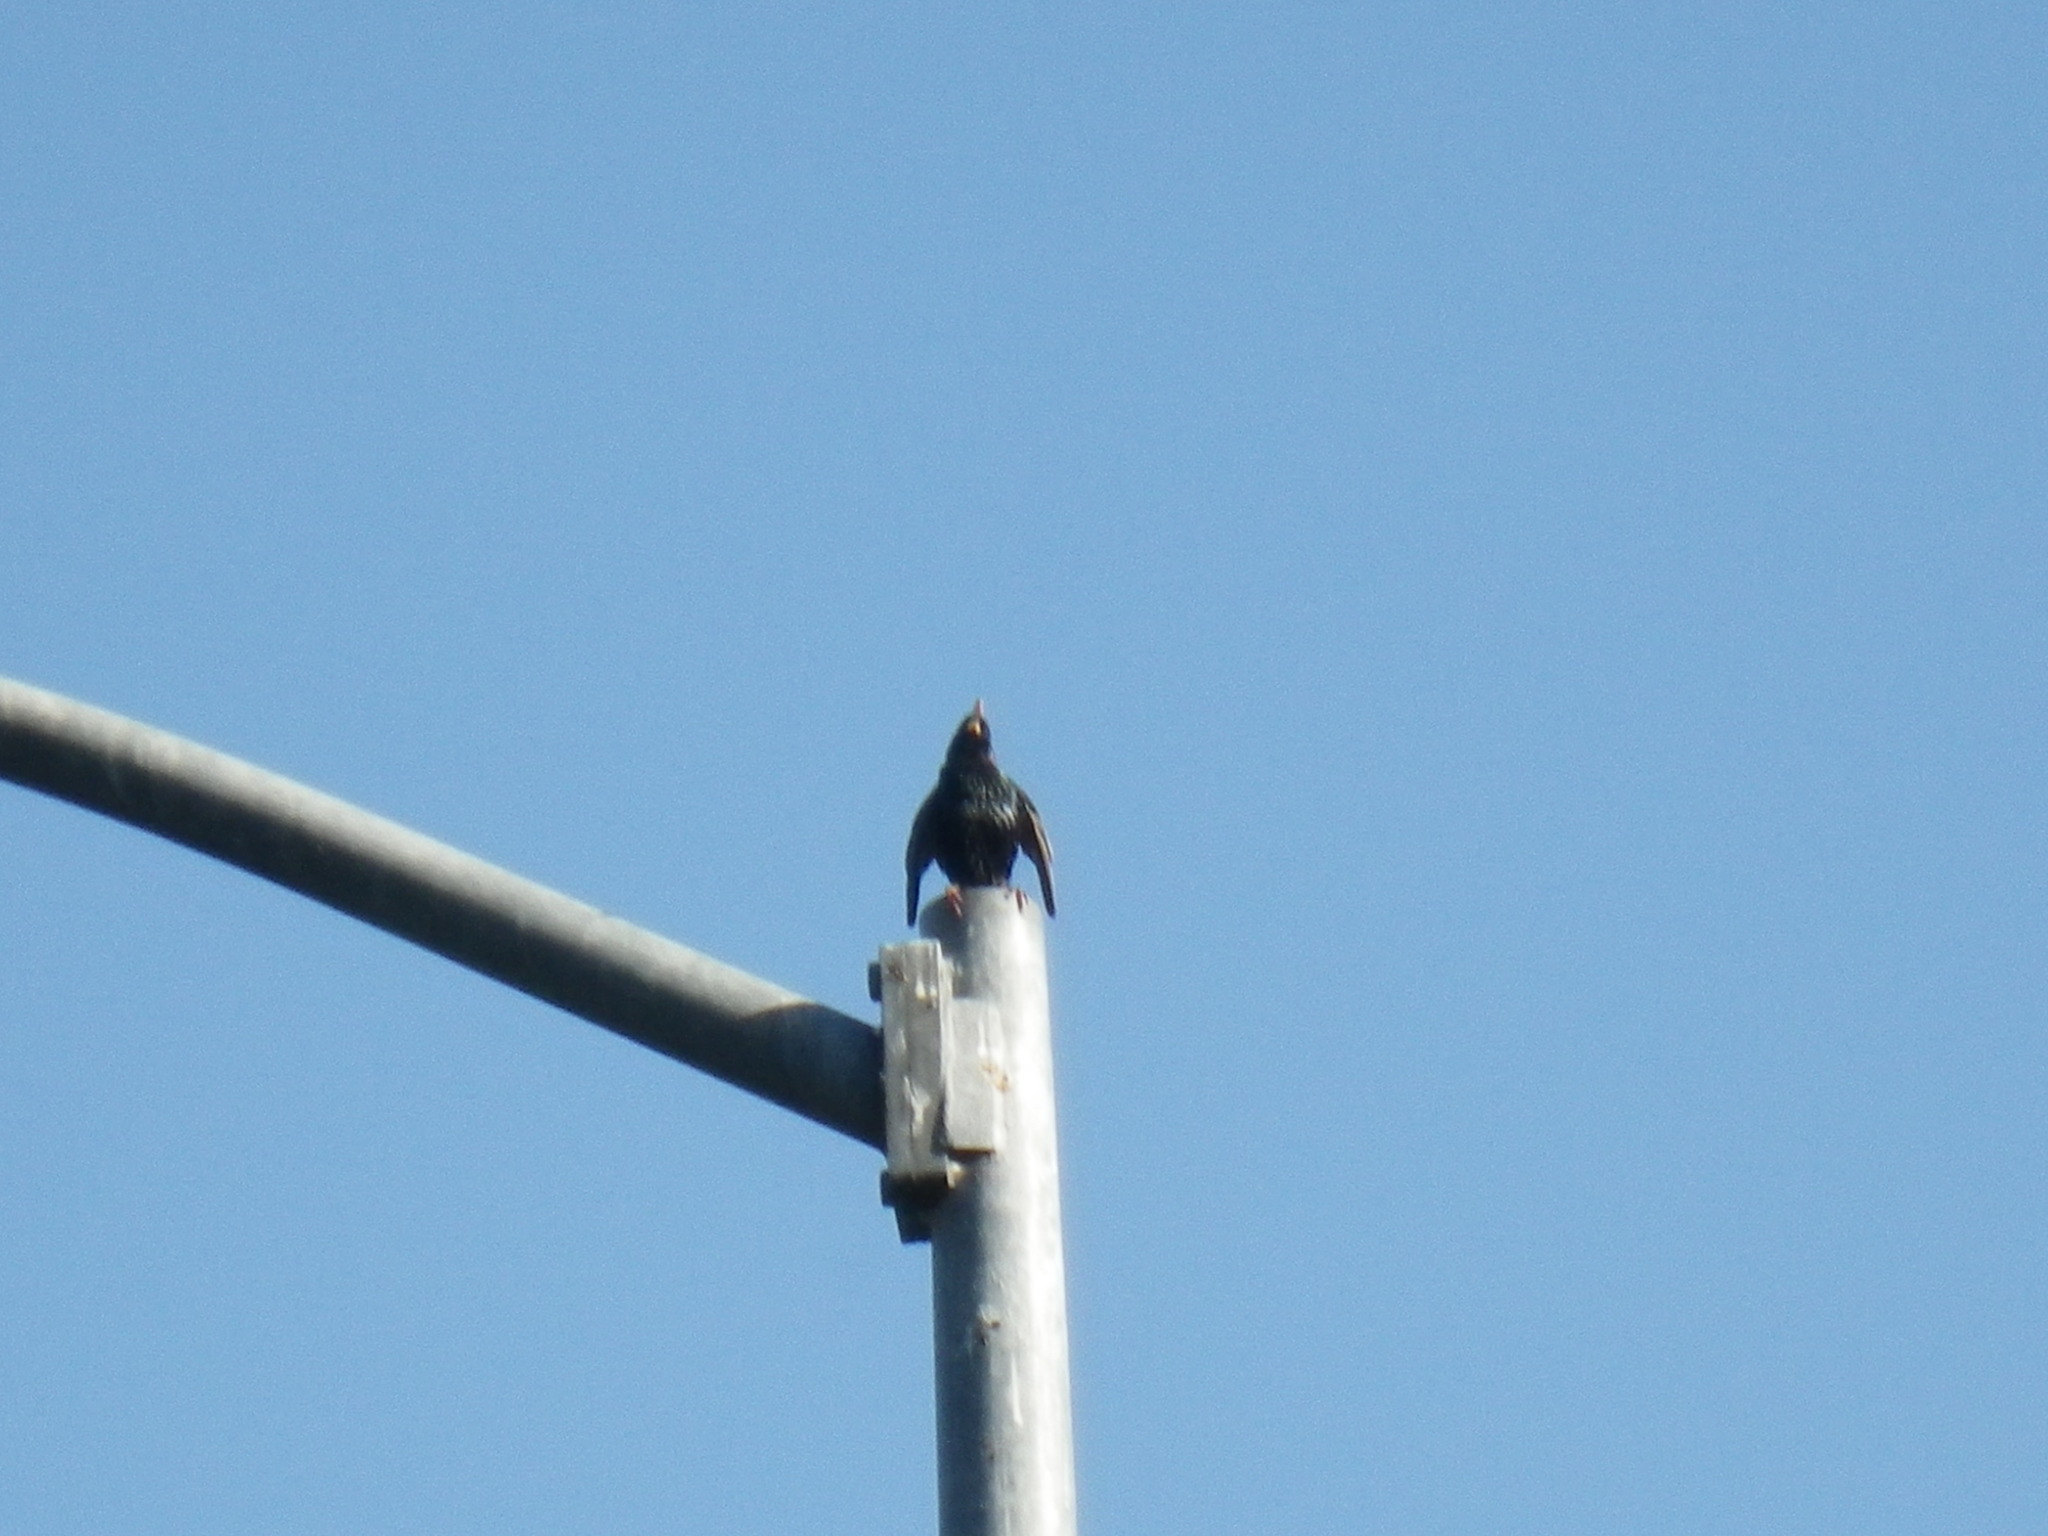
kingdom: Animalia
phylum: Chordata
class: Aves
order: Passeriformes
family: Sturnidae
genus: Sturnus
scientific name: Sturnus vulgaris
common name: Common starling
